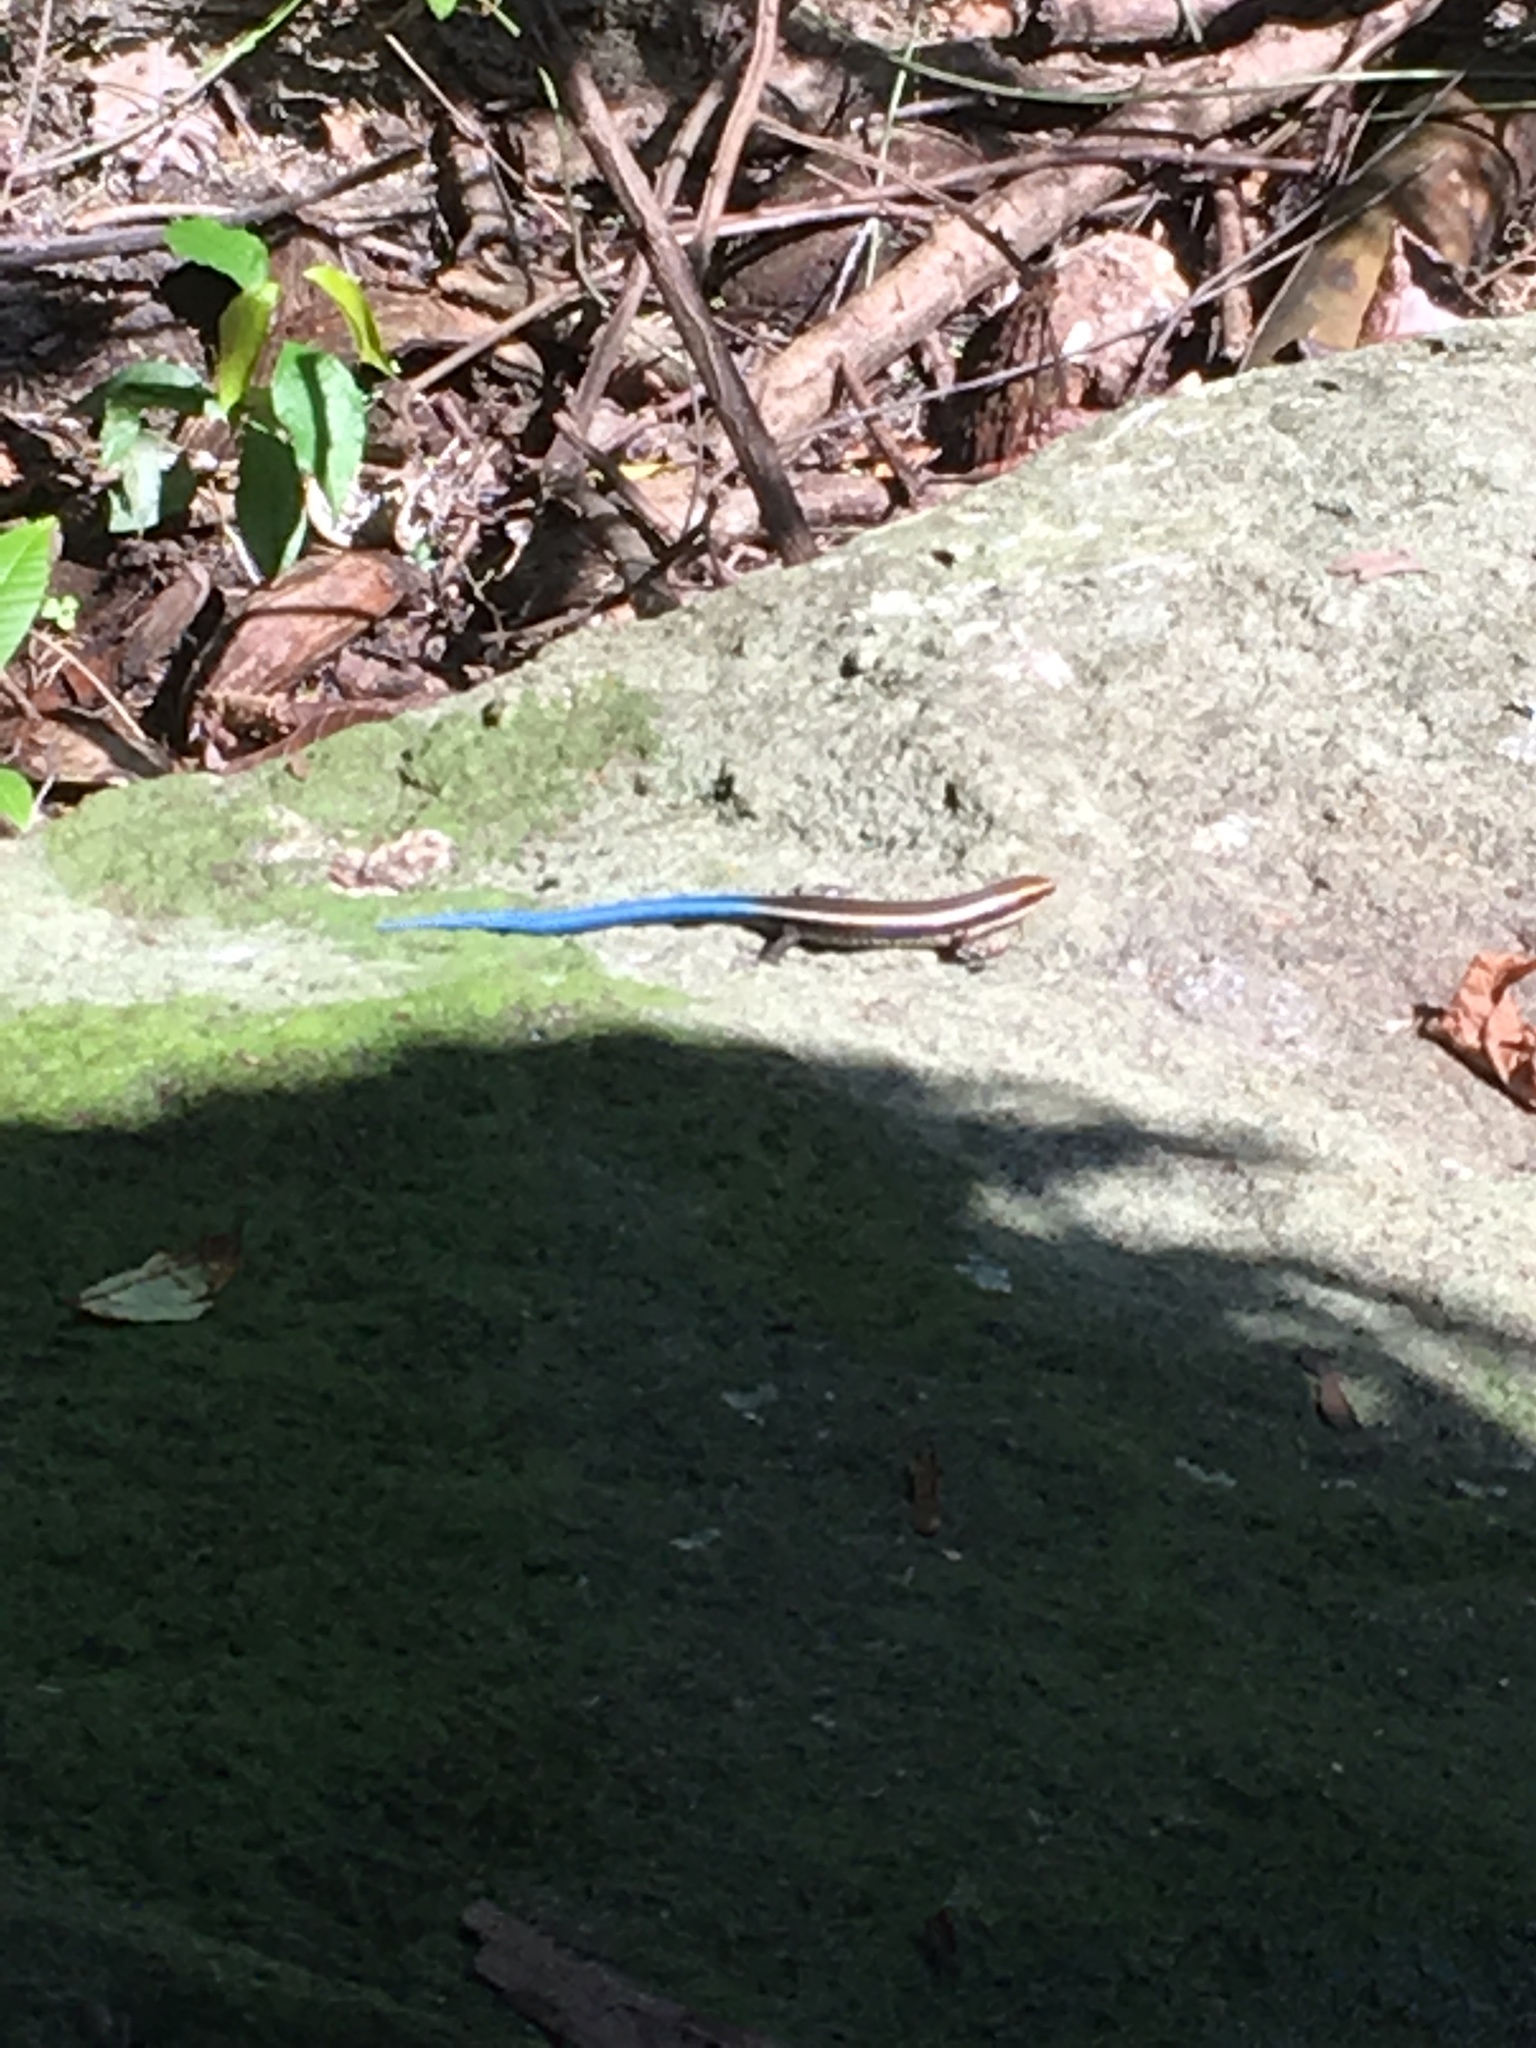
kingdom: Animalia
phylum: Chordata
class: Squamata
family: Gymnophthalmidae
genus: Tretioscincus
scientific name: Tretioscincus bifasciatus
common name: Rio magdalena tegu
